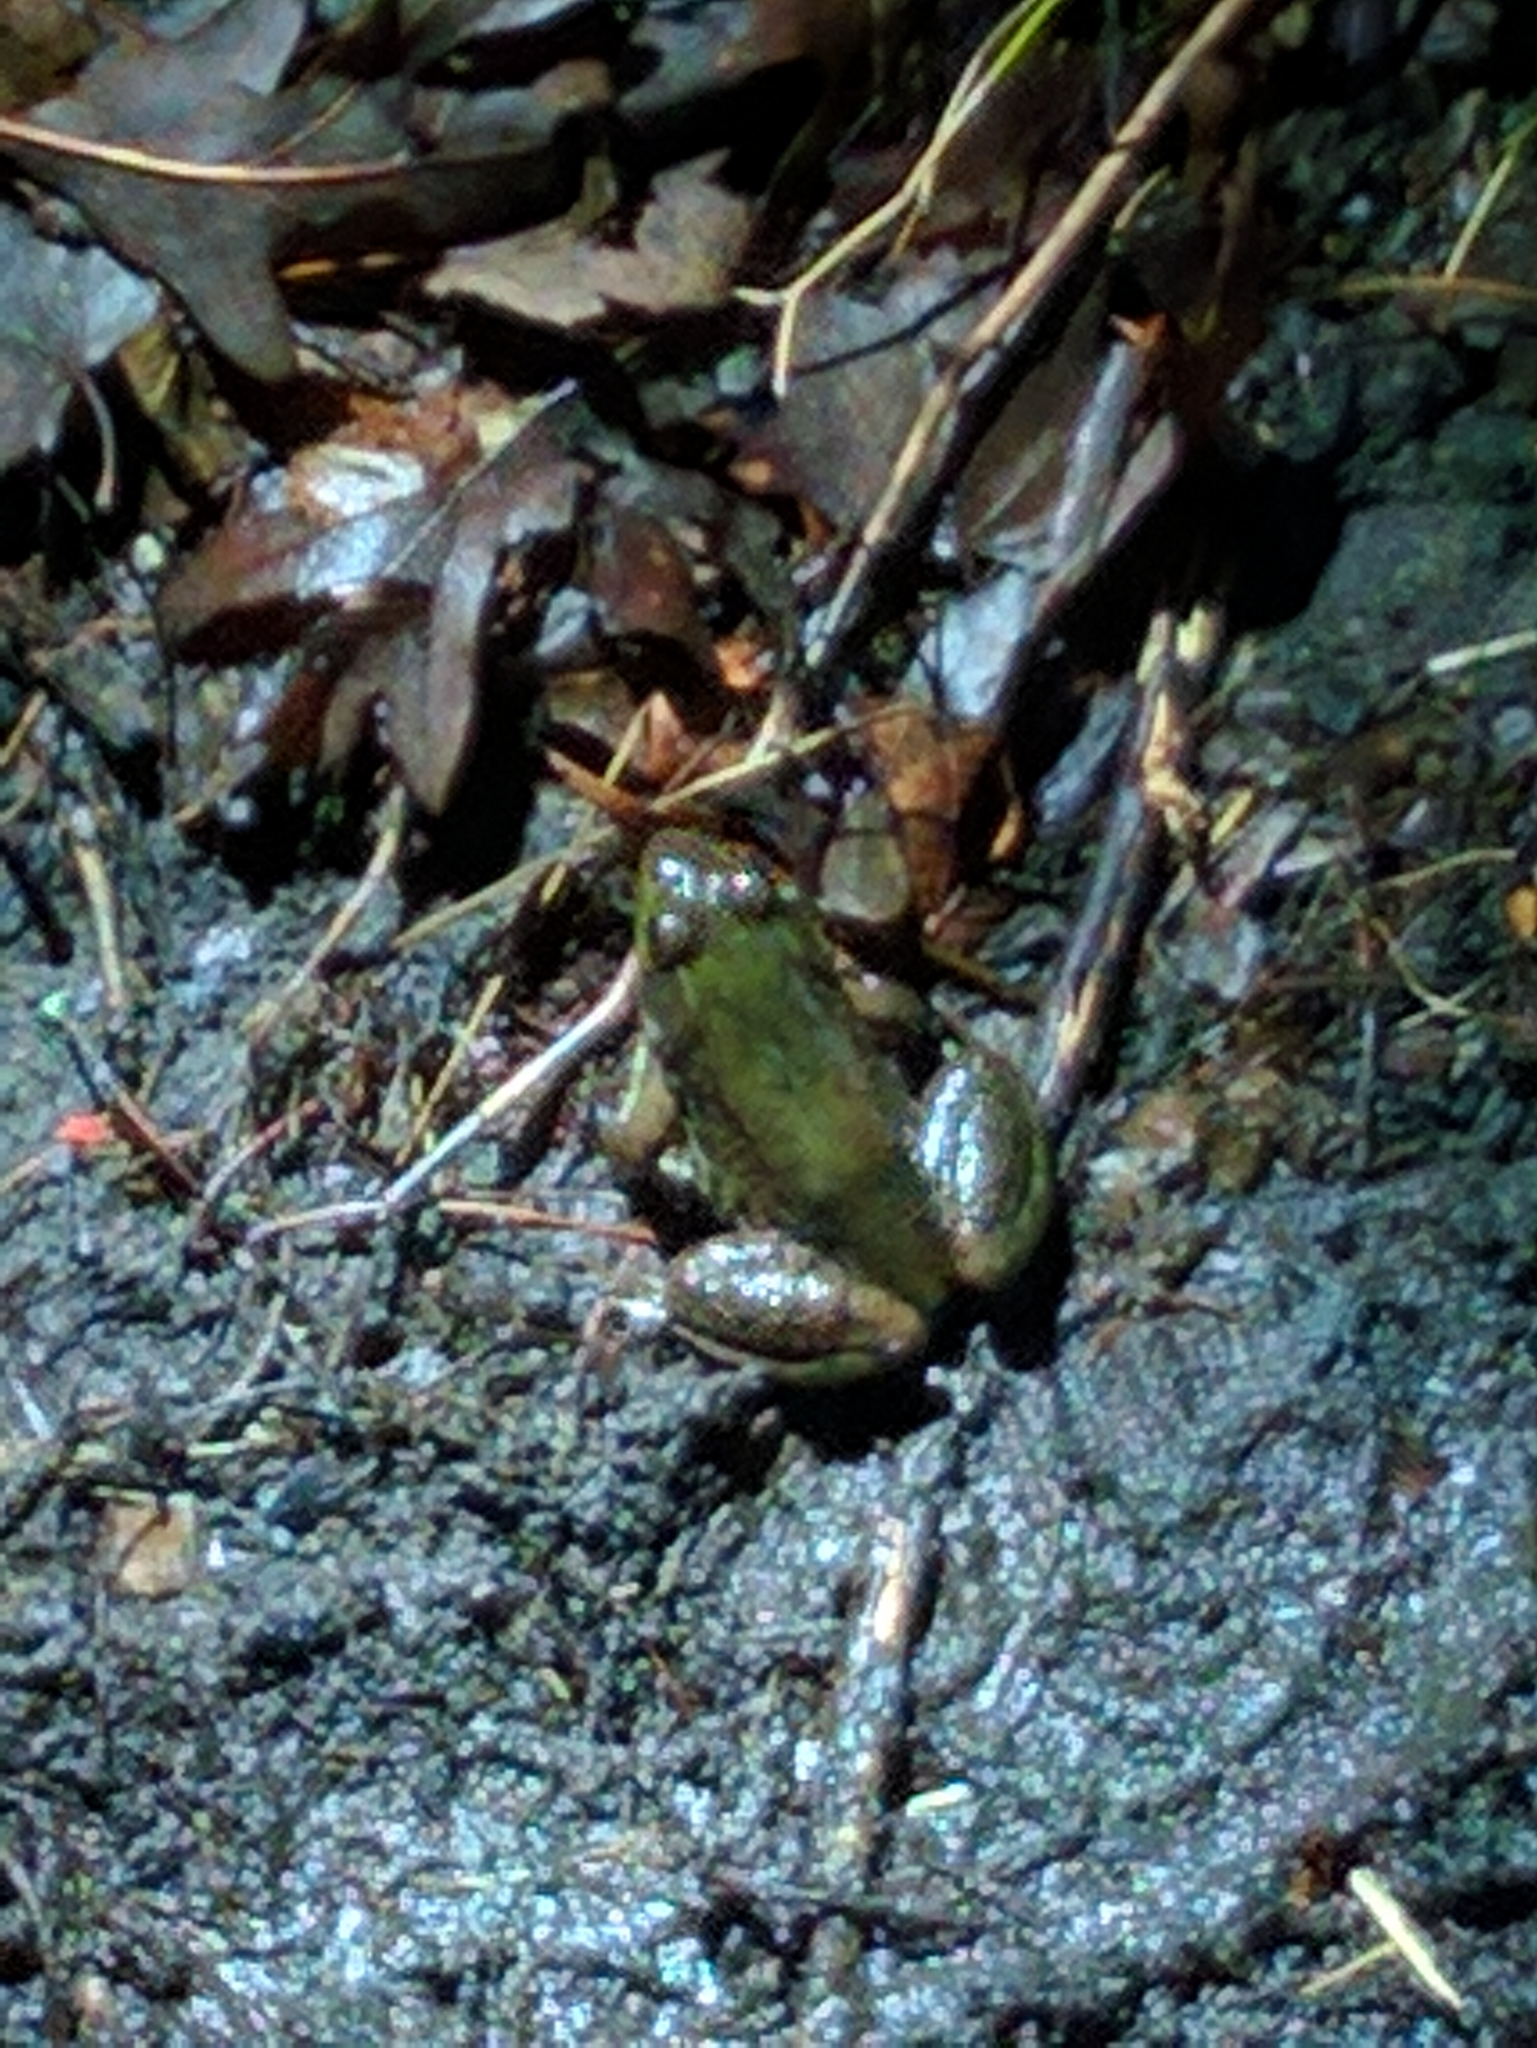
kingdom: Animalia
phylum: Chordata
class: Amphibia
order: Anura
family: Ranidae
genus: Lithobates
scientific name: Lithobates catesbeianus
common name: American bullfrog
